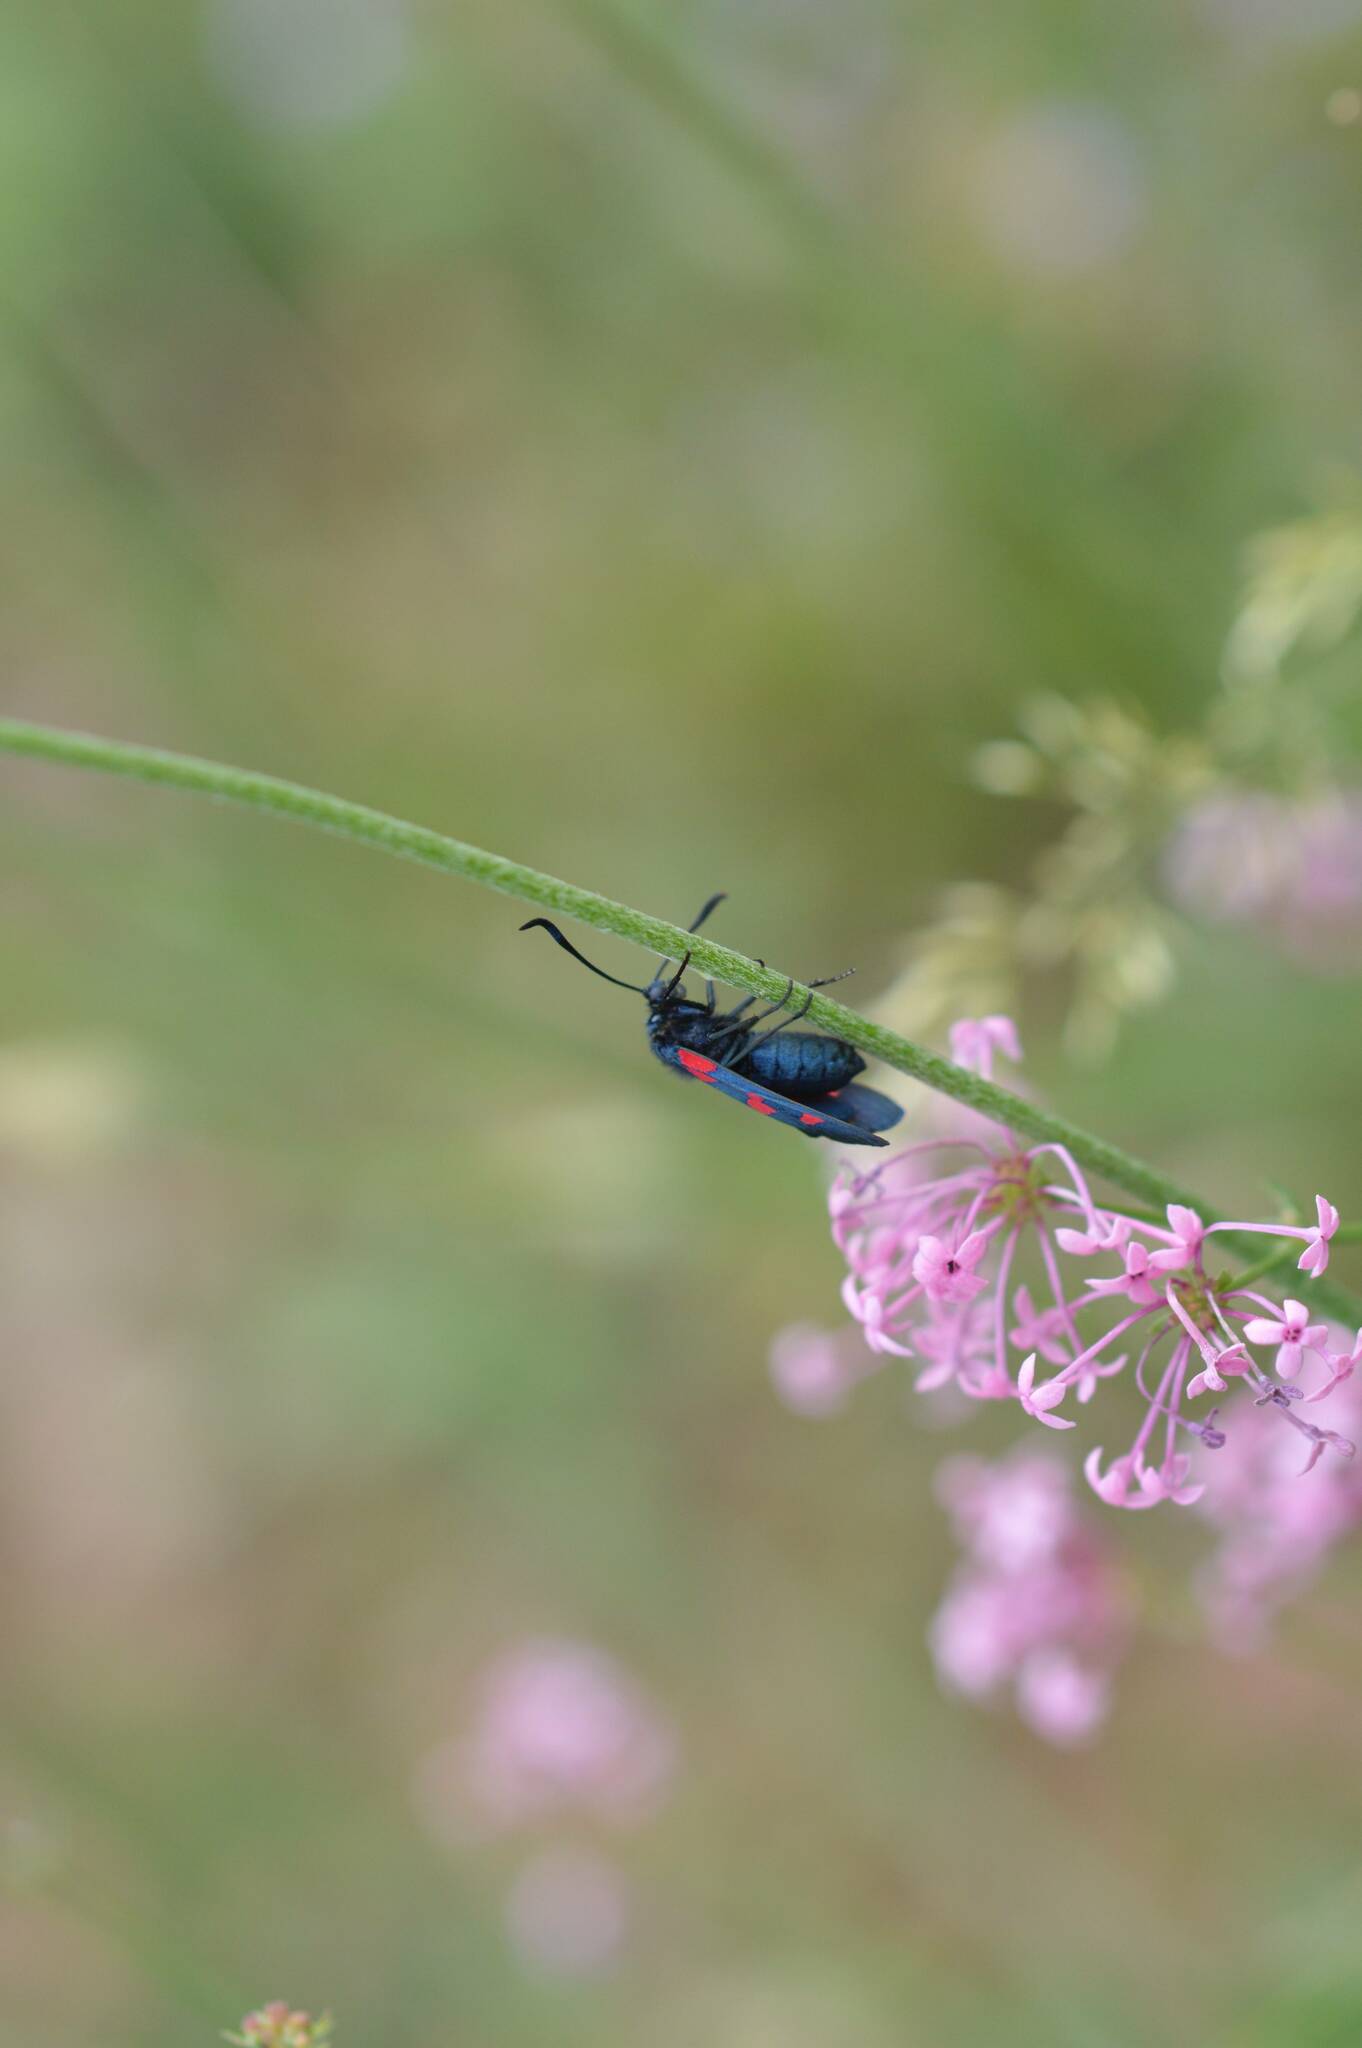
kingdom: Animalia
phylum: Arthropoda
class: Insecta
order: Lepidoptera
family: Zygaenidae
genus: Zygaena
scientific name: Zygaena trifolii
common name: Five-spot burnet
